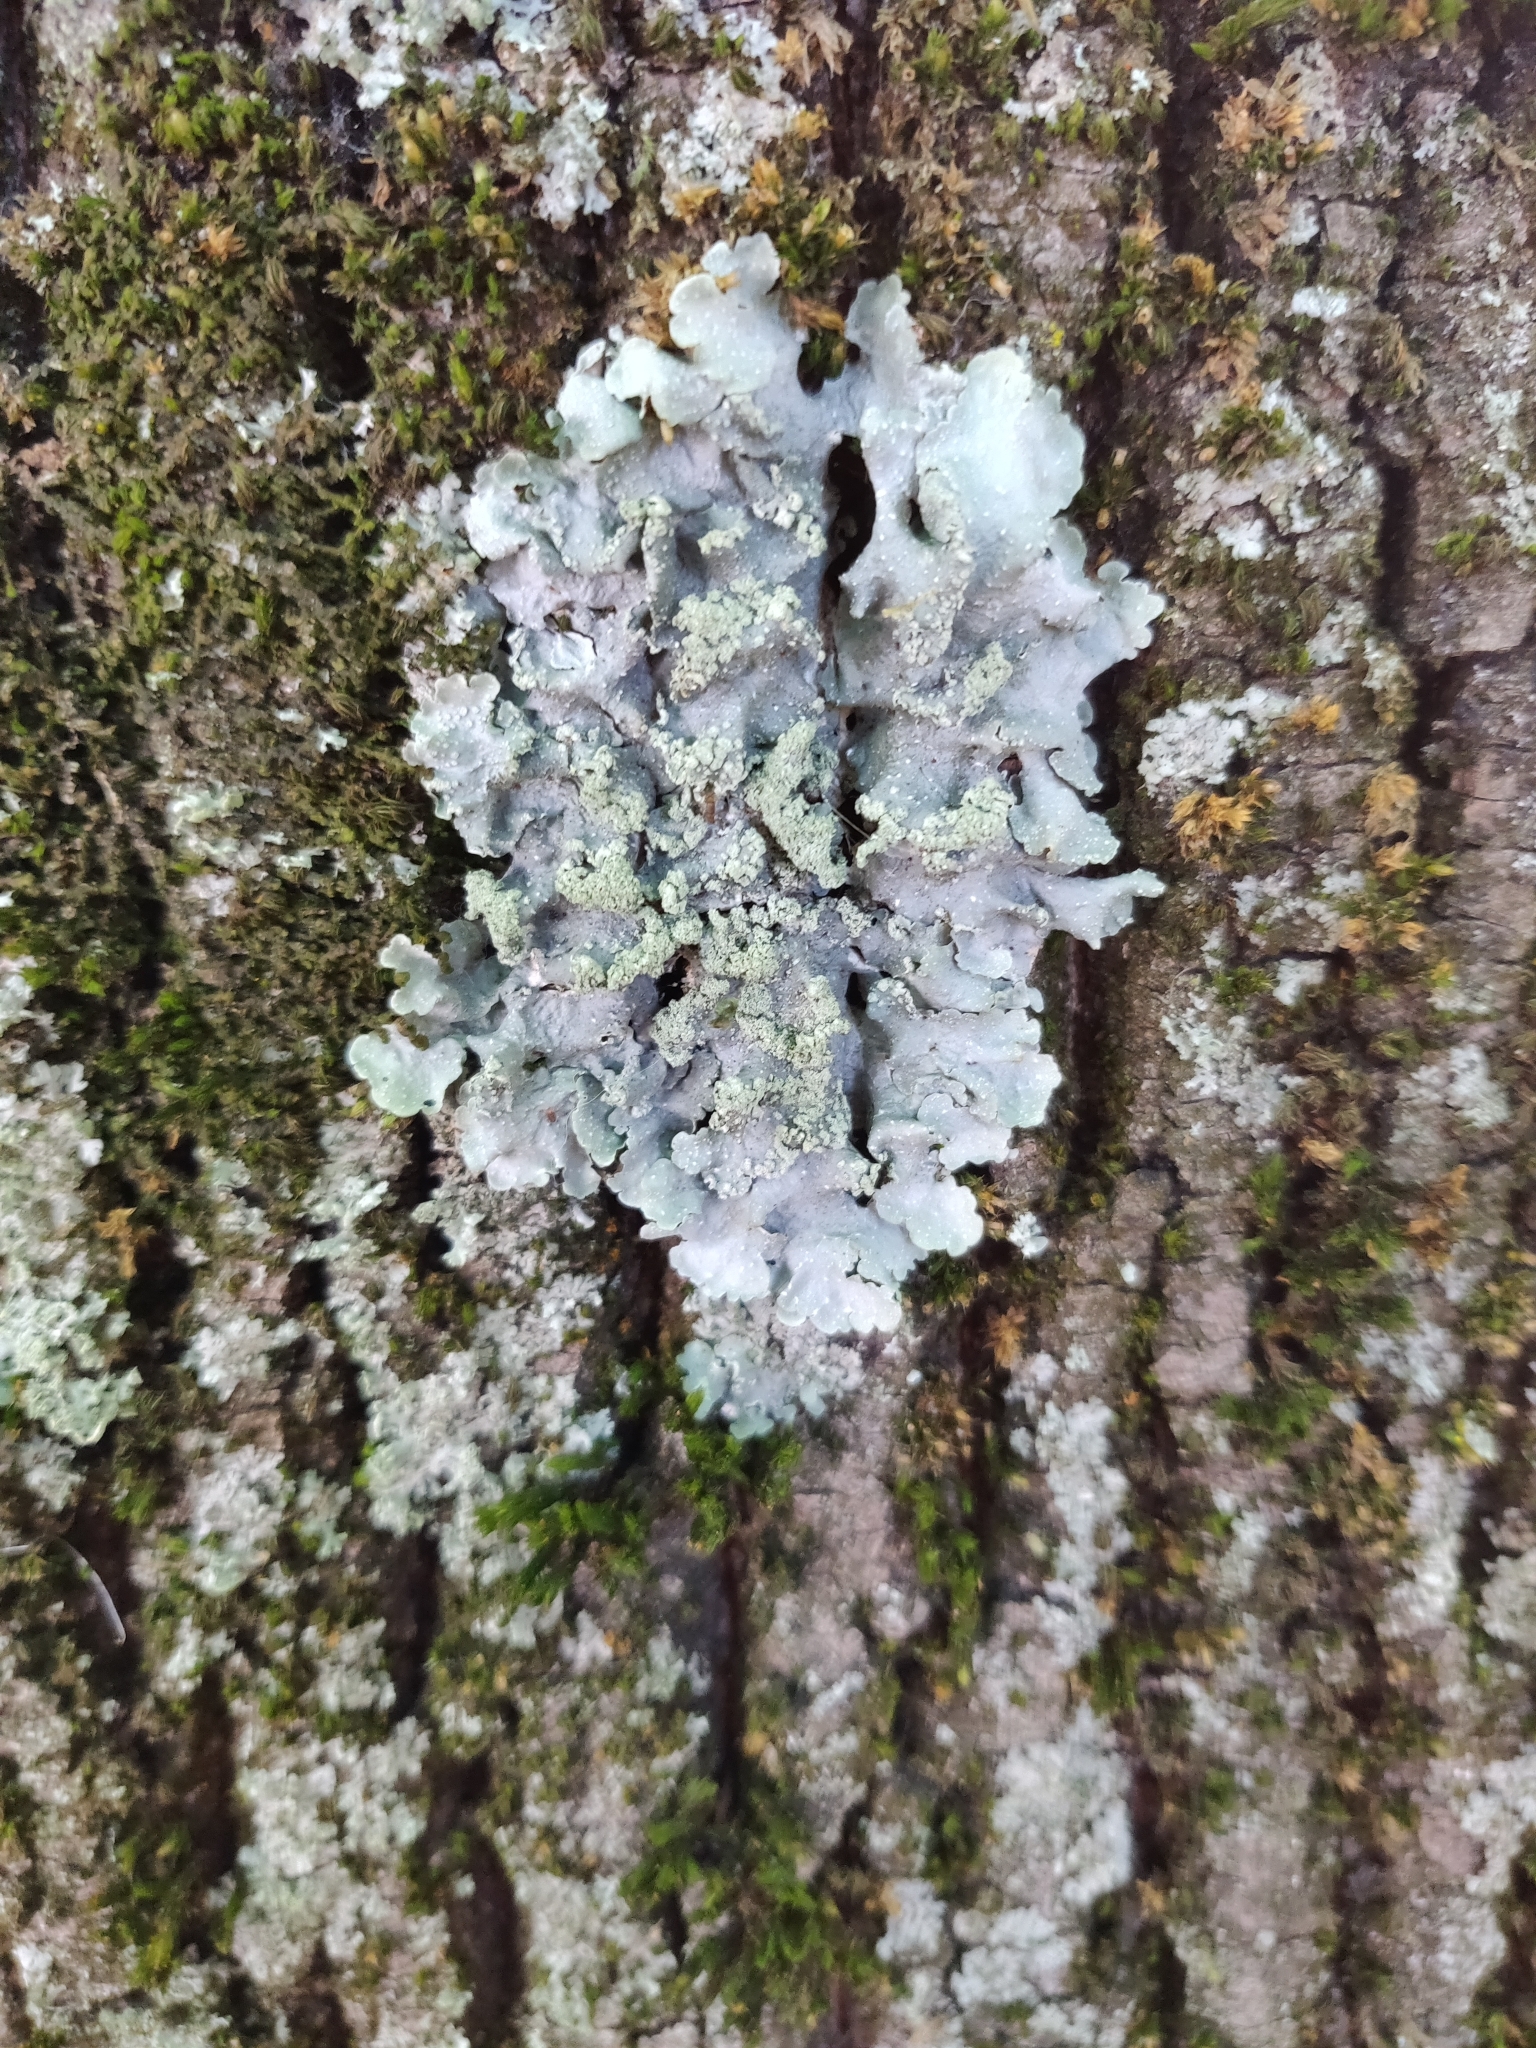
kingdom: Fungi
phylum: Ascomycota
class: Lecanoromycetes
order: Lecanorales
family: Parmeliaceae
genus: Punctelia
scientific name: Punctelia
